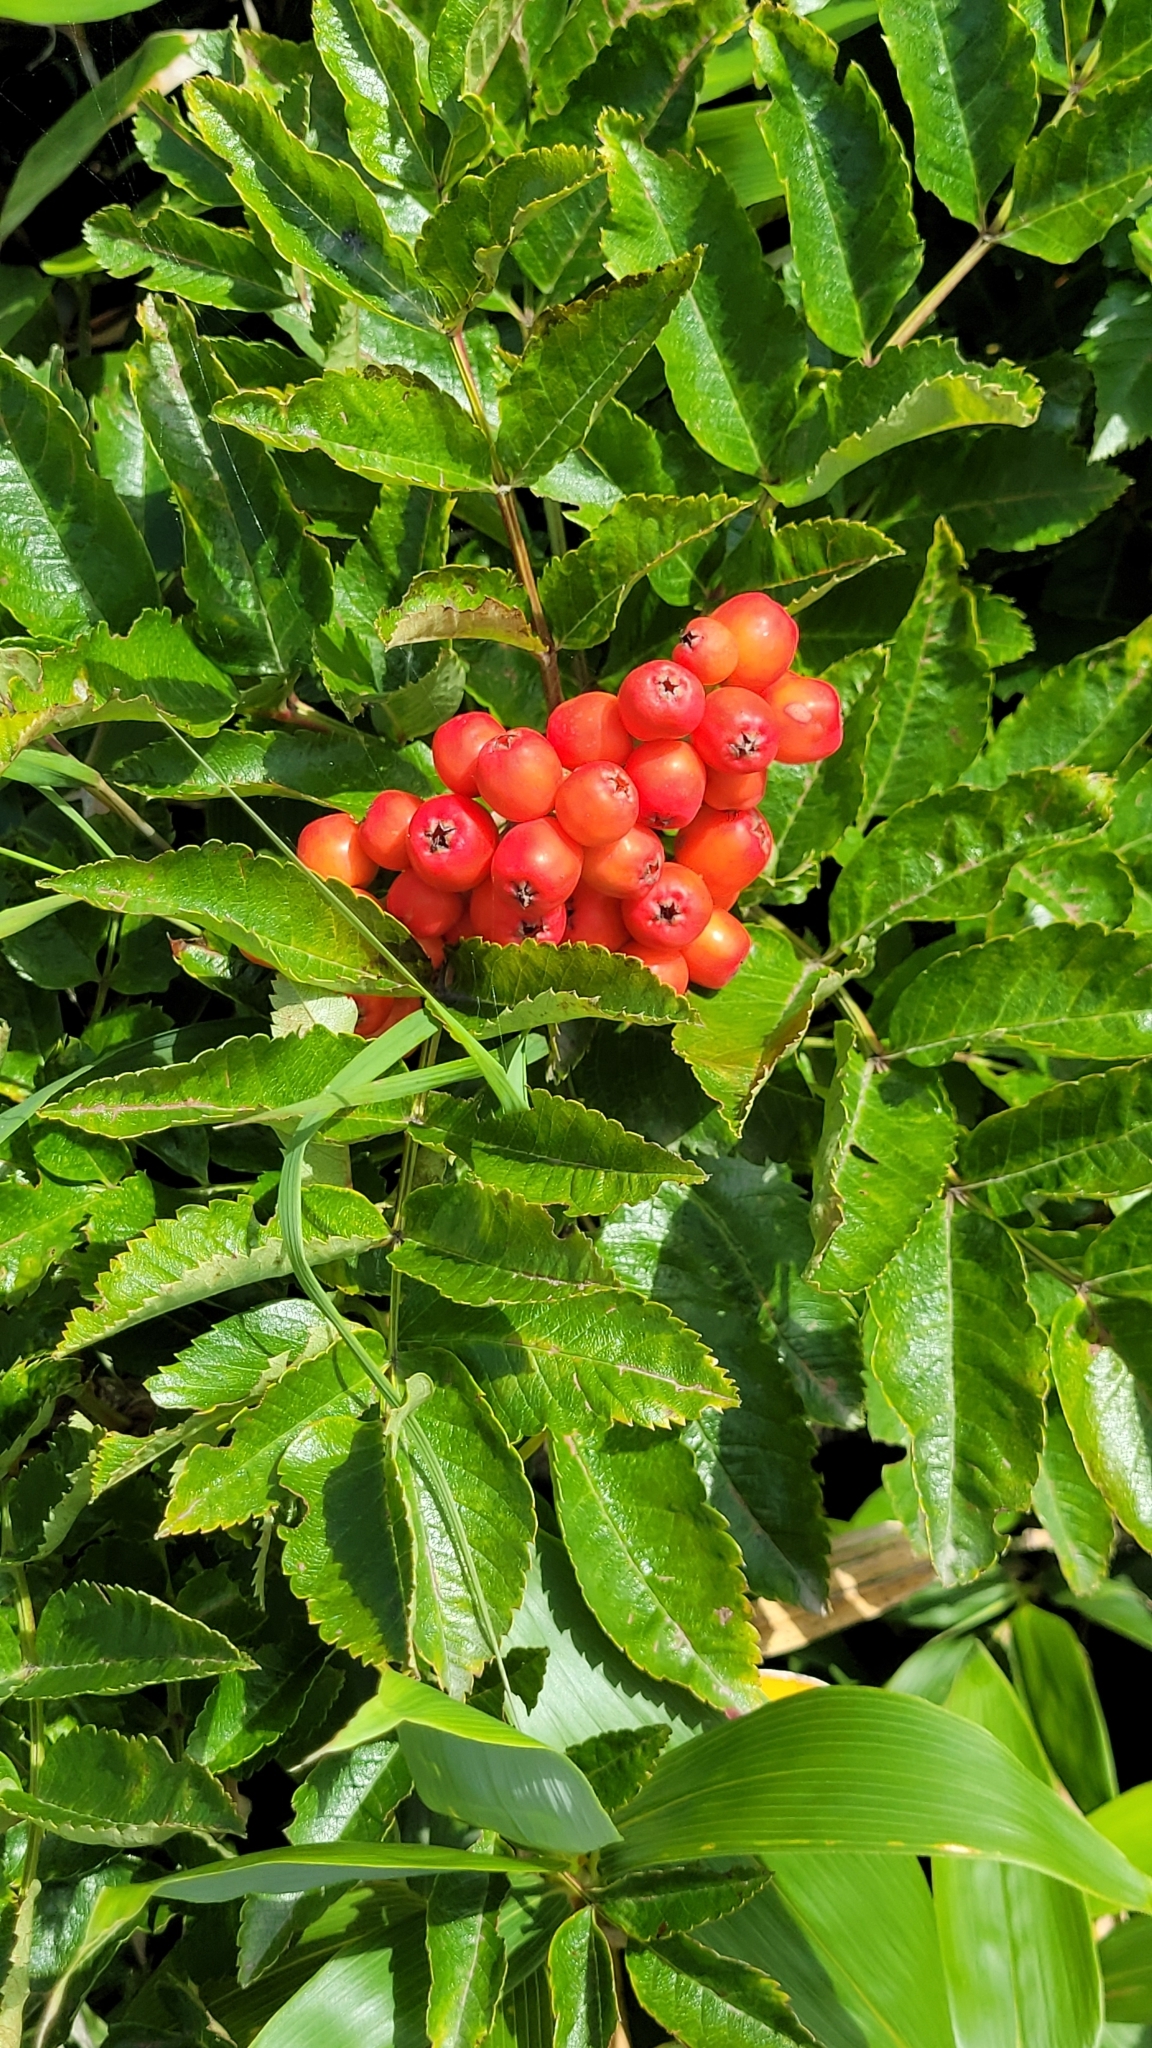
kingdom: Plantae
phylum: Tracheophyta
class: Magnoliopsida
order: Rosales
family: Rosaceae
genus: Sorbus
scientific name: Sorbus sambucifolia
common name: Siberian mountain-ash
